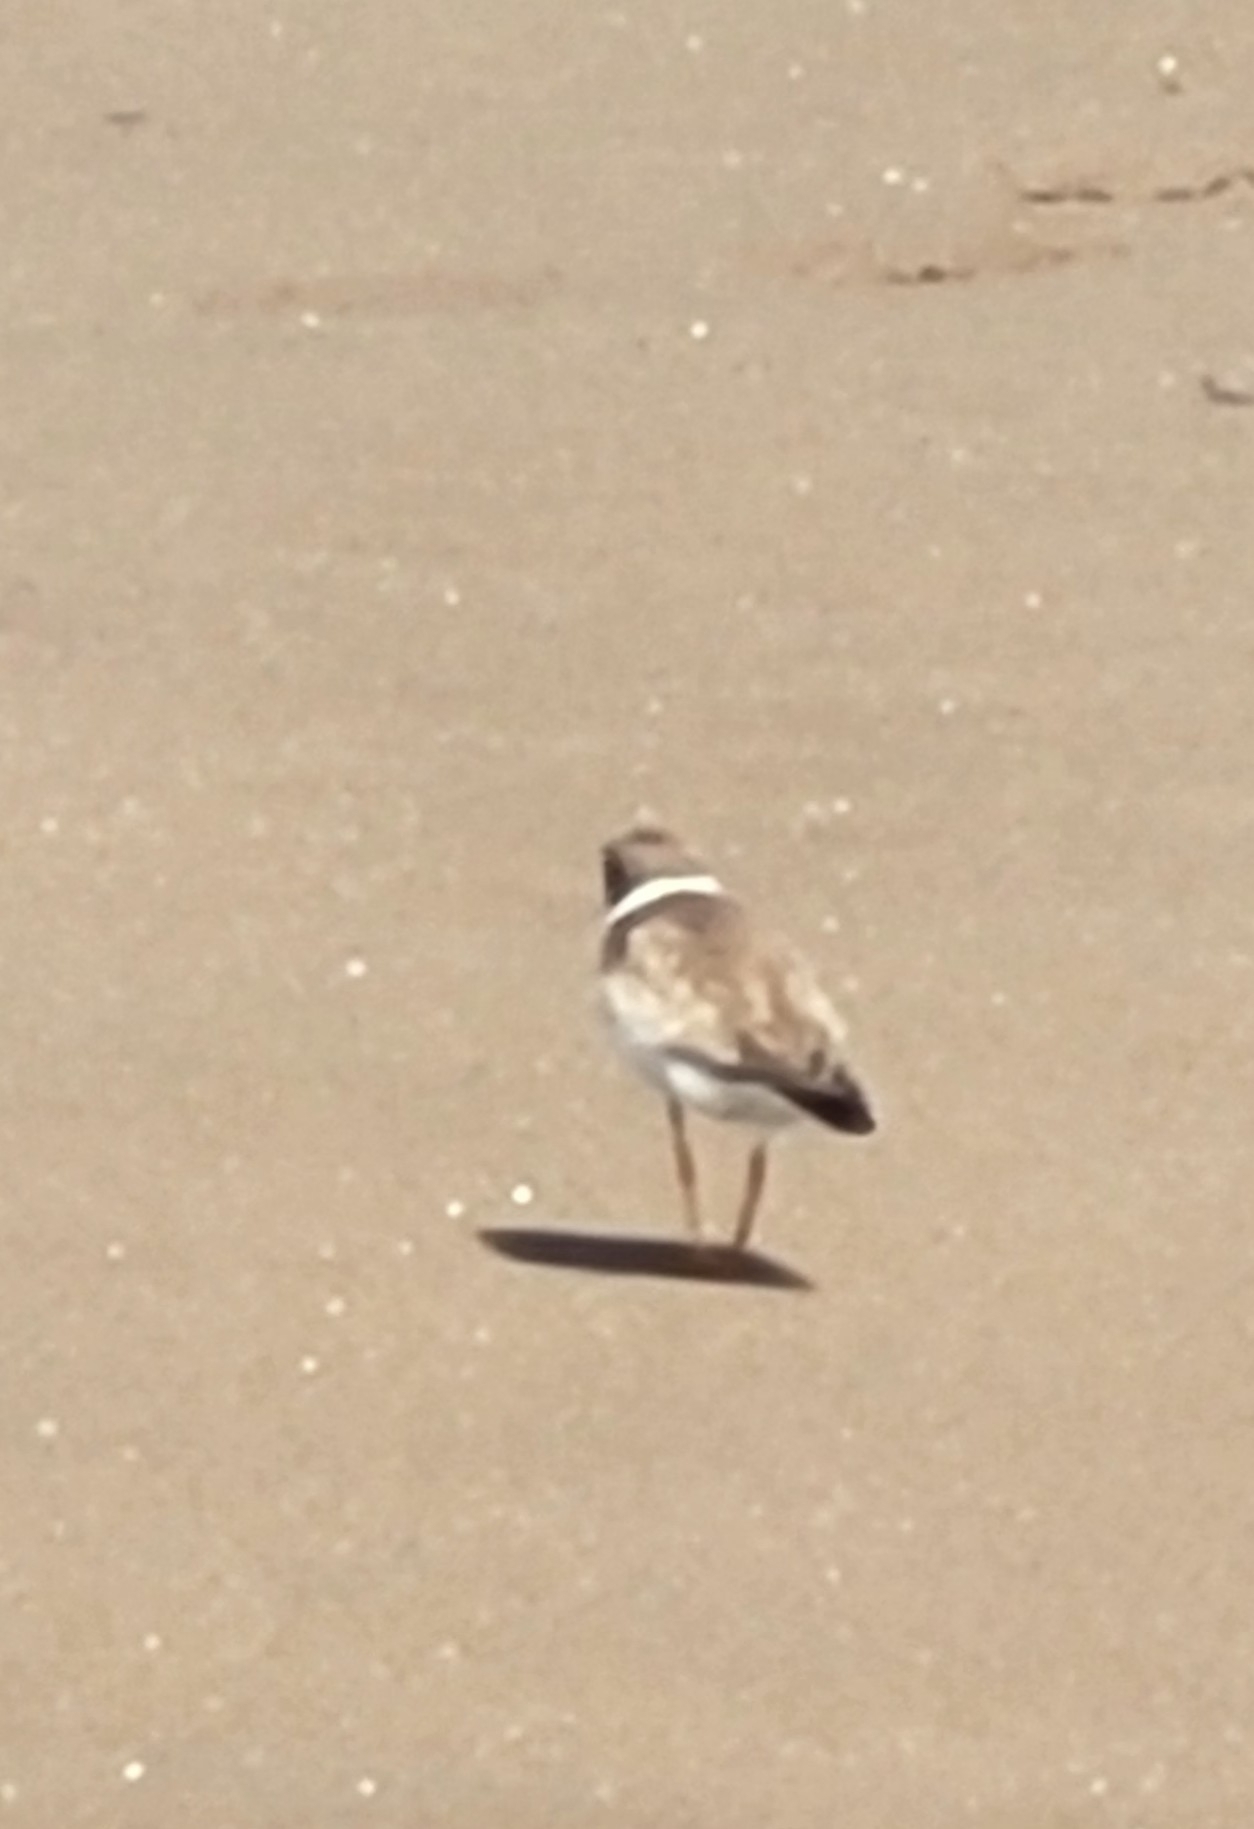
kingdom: Animalia
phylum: Chordata
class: Aves
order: Charadriiformes
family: Charadriidae
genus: Charadrius
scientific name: Charadrius semipalmatus
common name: Semipalmated plover
